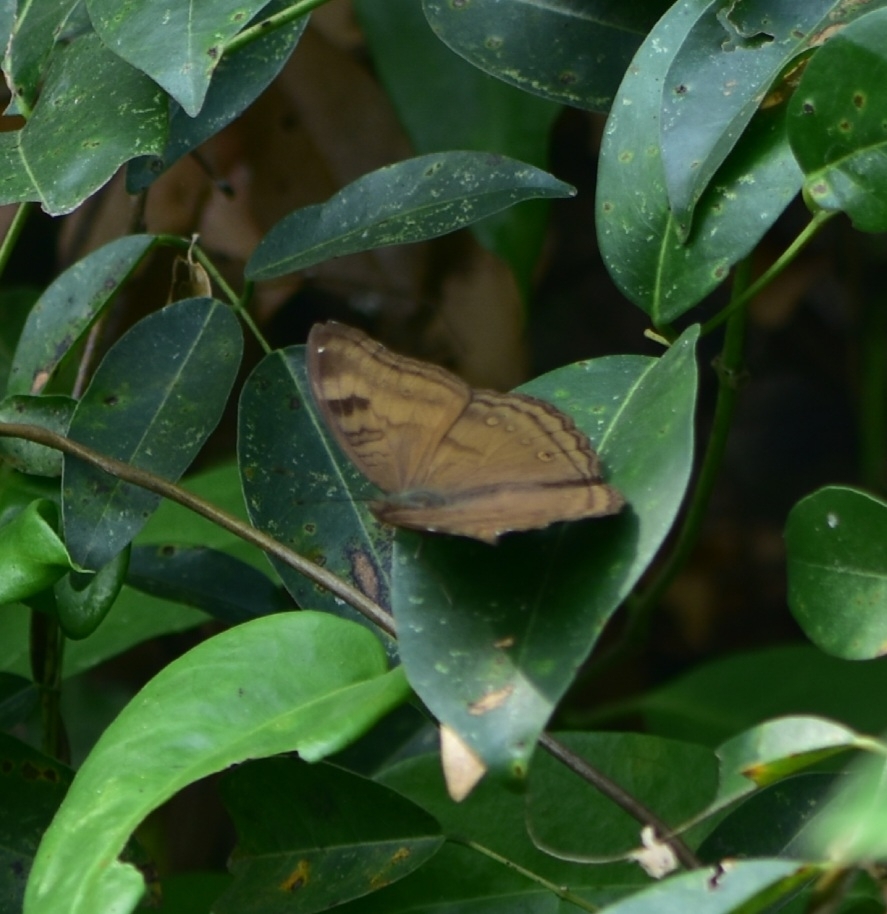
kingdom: Animalia
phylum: Arthropoda
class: Insecta
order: Lepidoptera
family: Nymphalidae
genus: Junonia
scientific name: Junonia iphita
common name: Chocolate pansy
